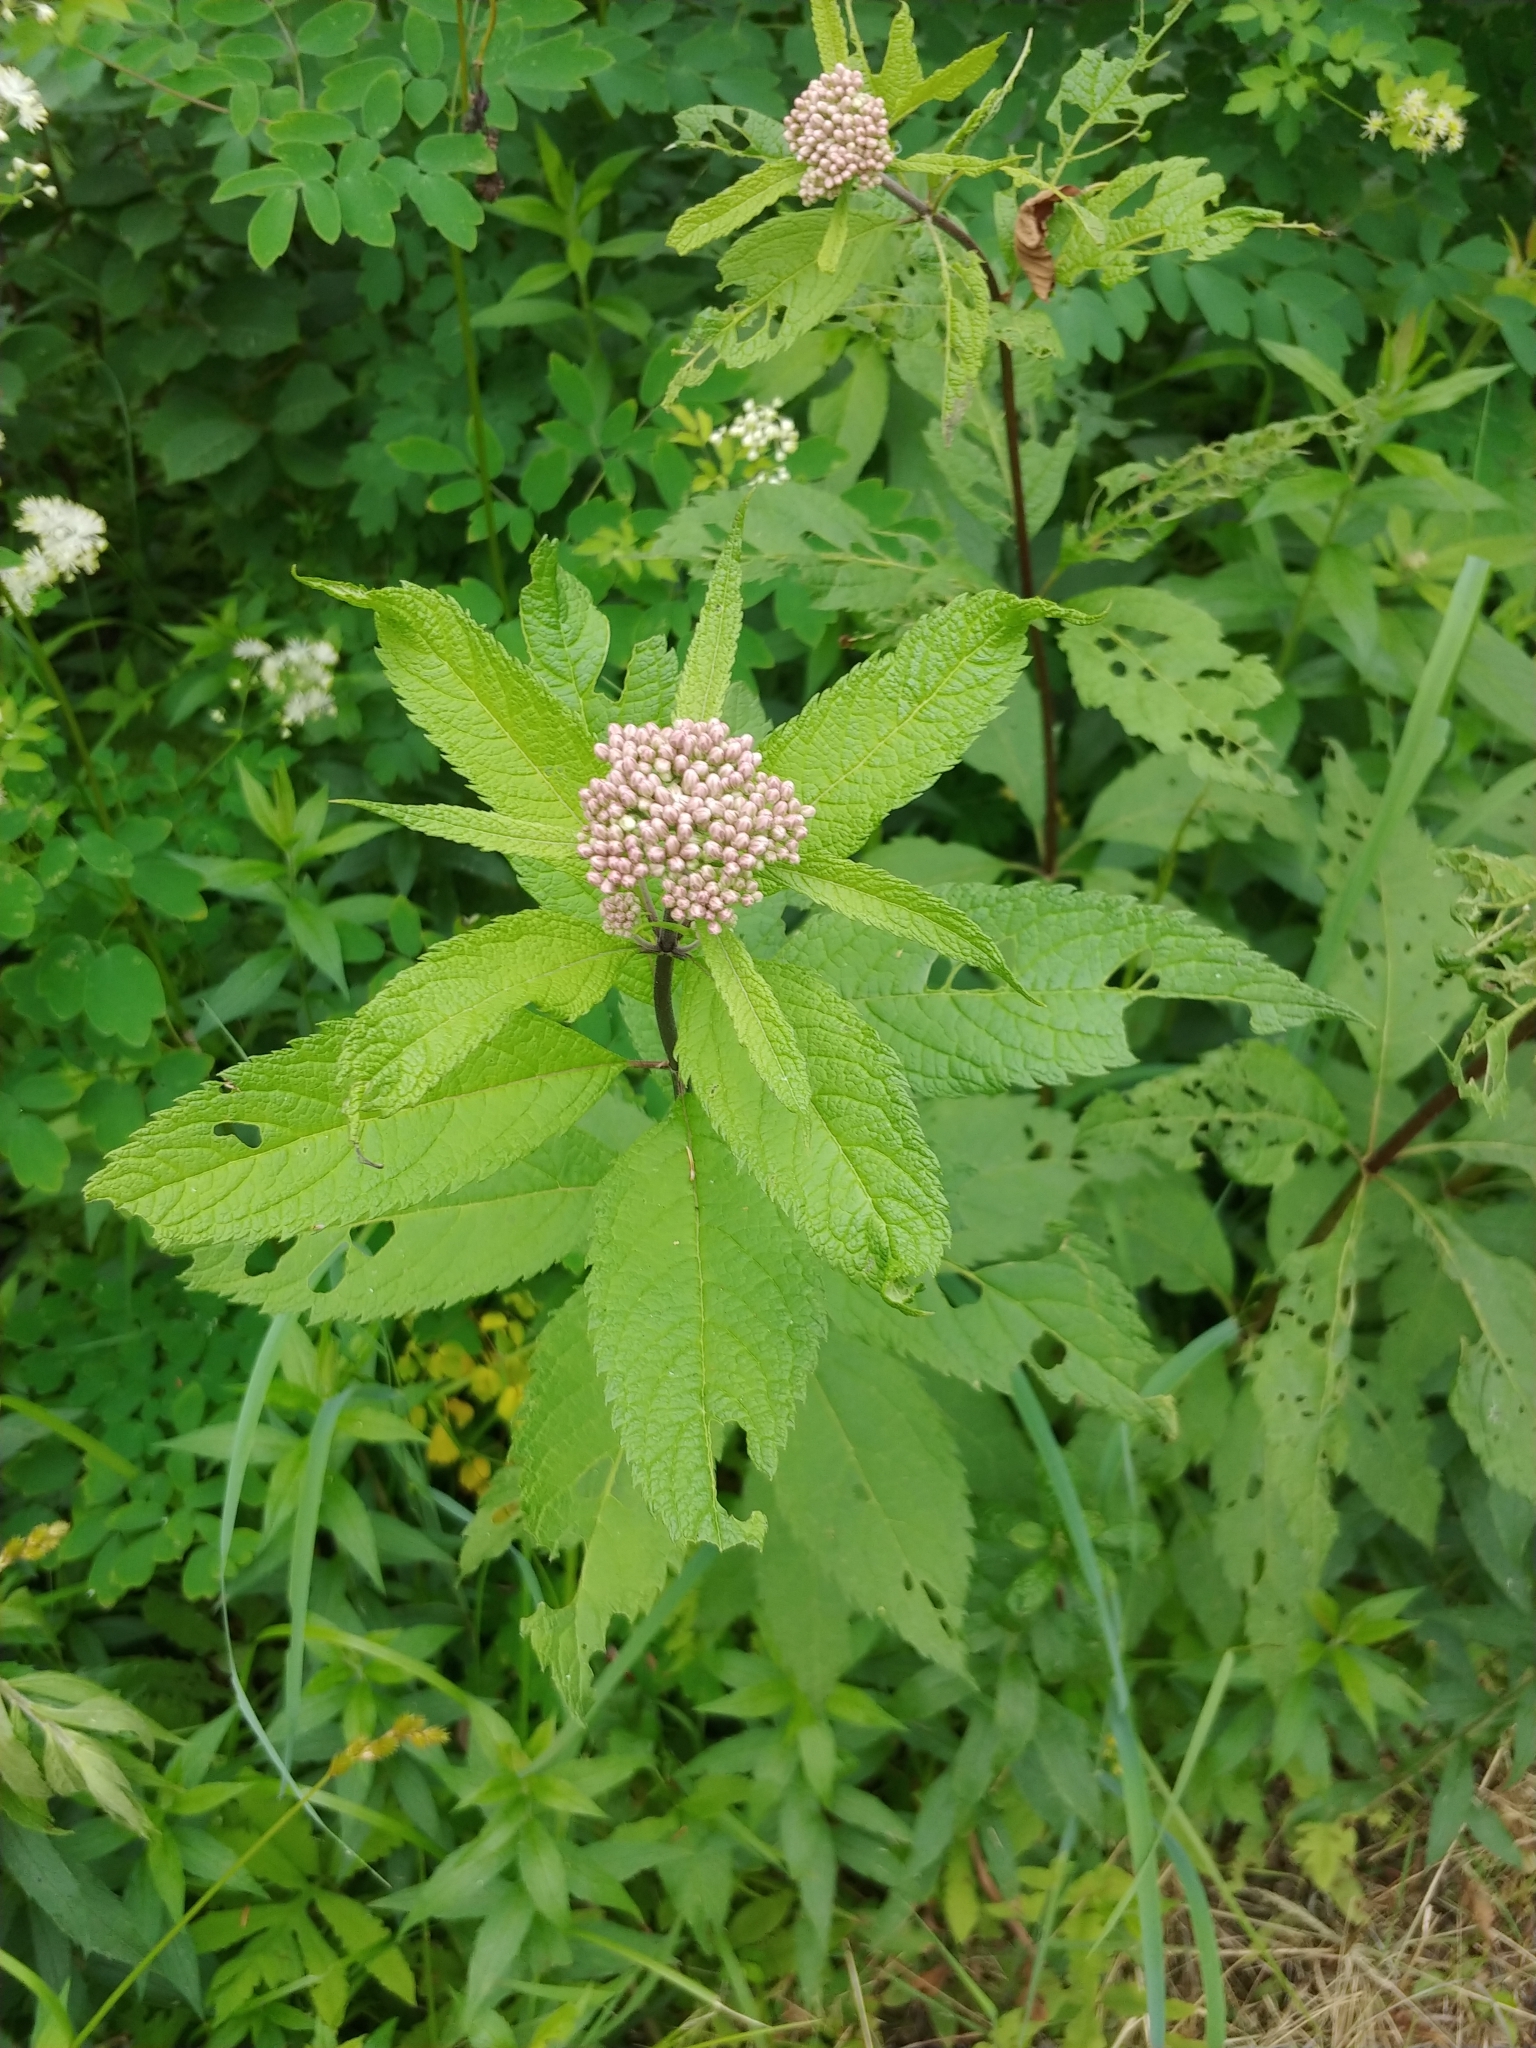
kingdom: Plantae
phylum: Tracheophyta
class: Magnoliopsida
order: Asterales
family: Asteraceae
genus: Eutrochium
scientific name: Eutrochium maculatum
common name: Spotted joe pye weed
